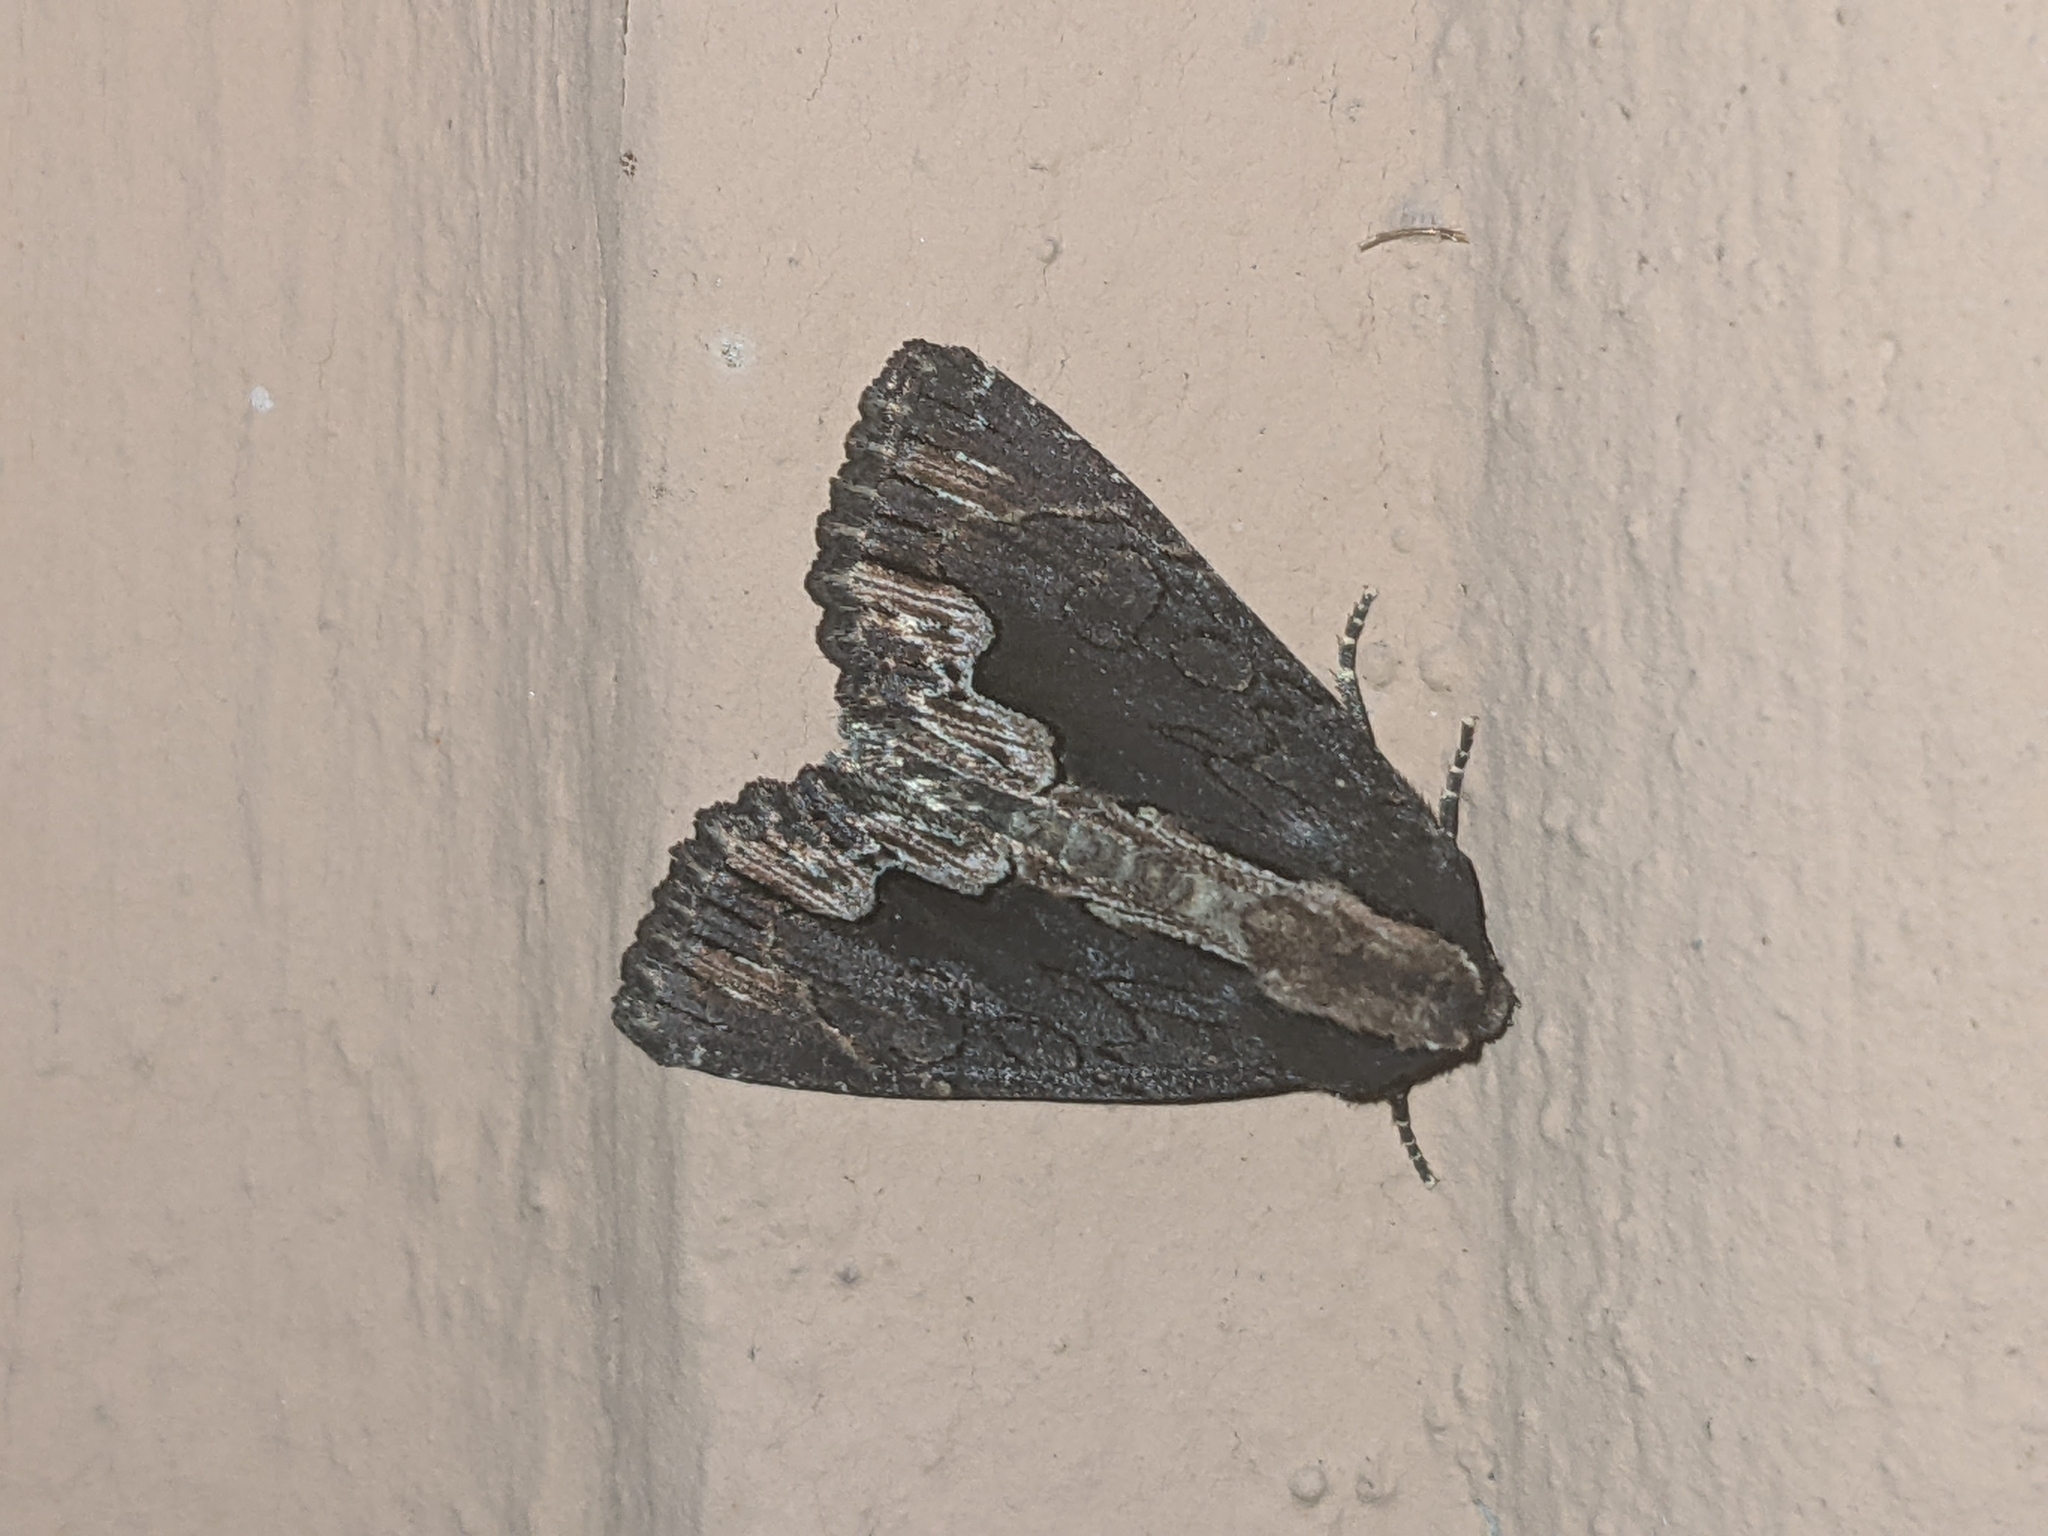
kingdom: Animalia
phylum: Arthropoda
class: Insecta
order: Lepidoptera
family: Noctuidae
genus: Dypterygia
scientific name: Dypterygia scabriuscula
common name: Bird's wing
